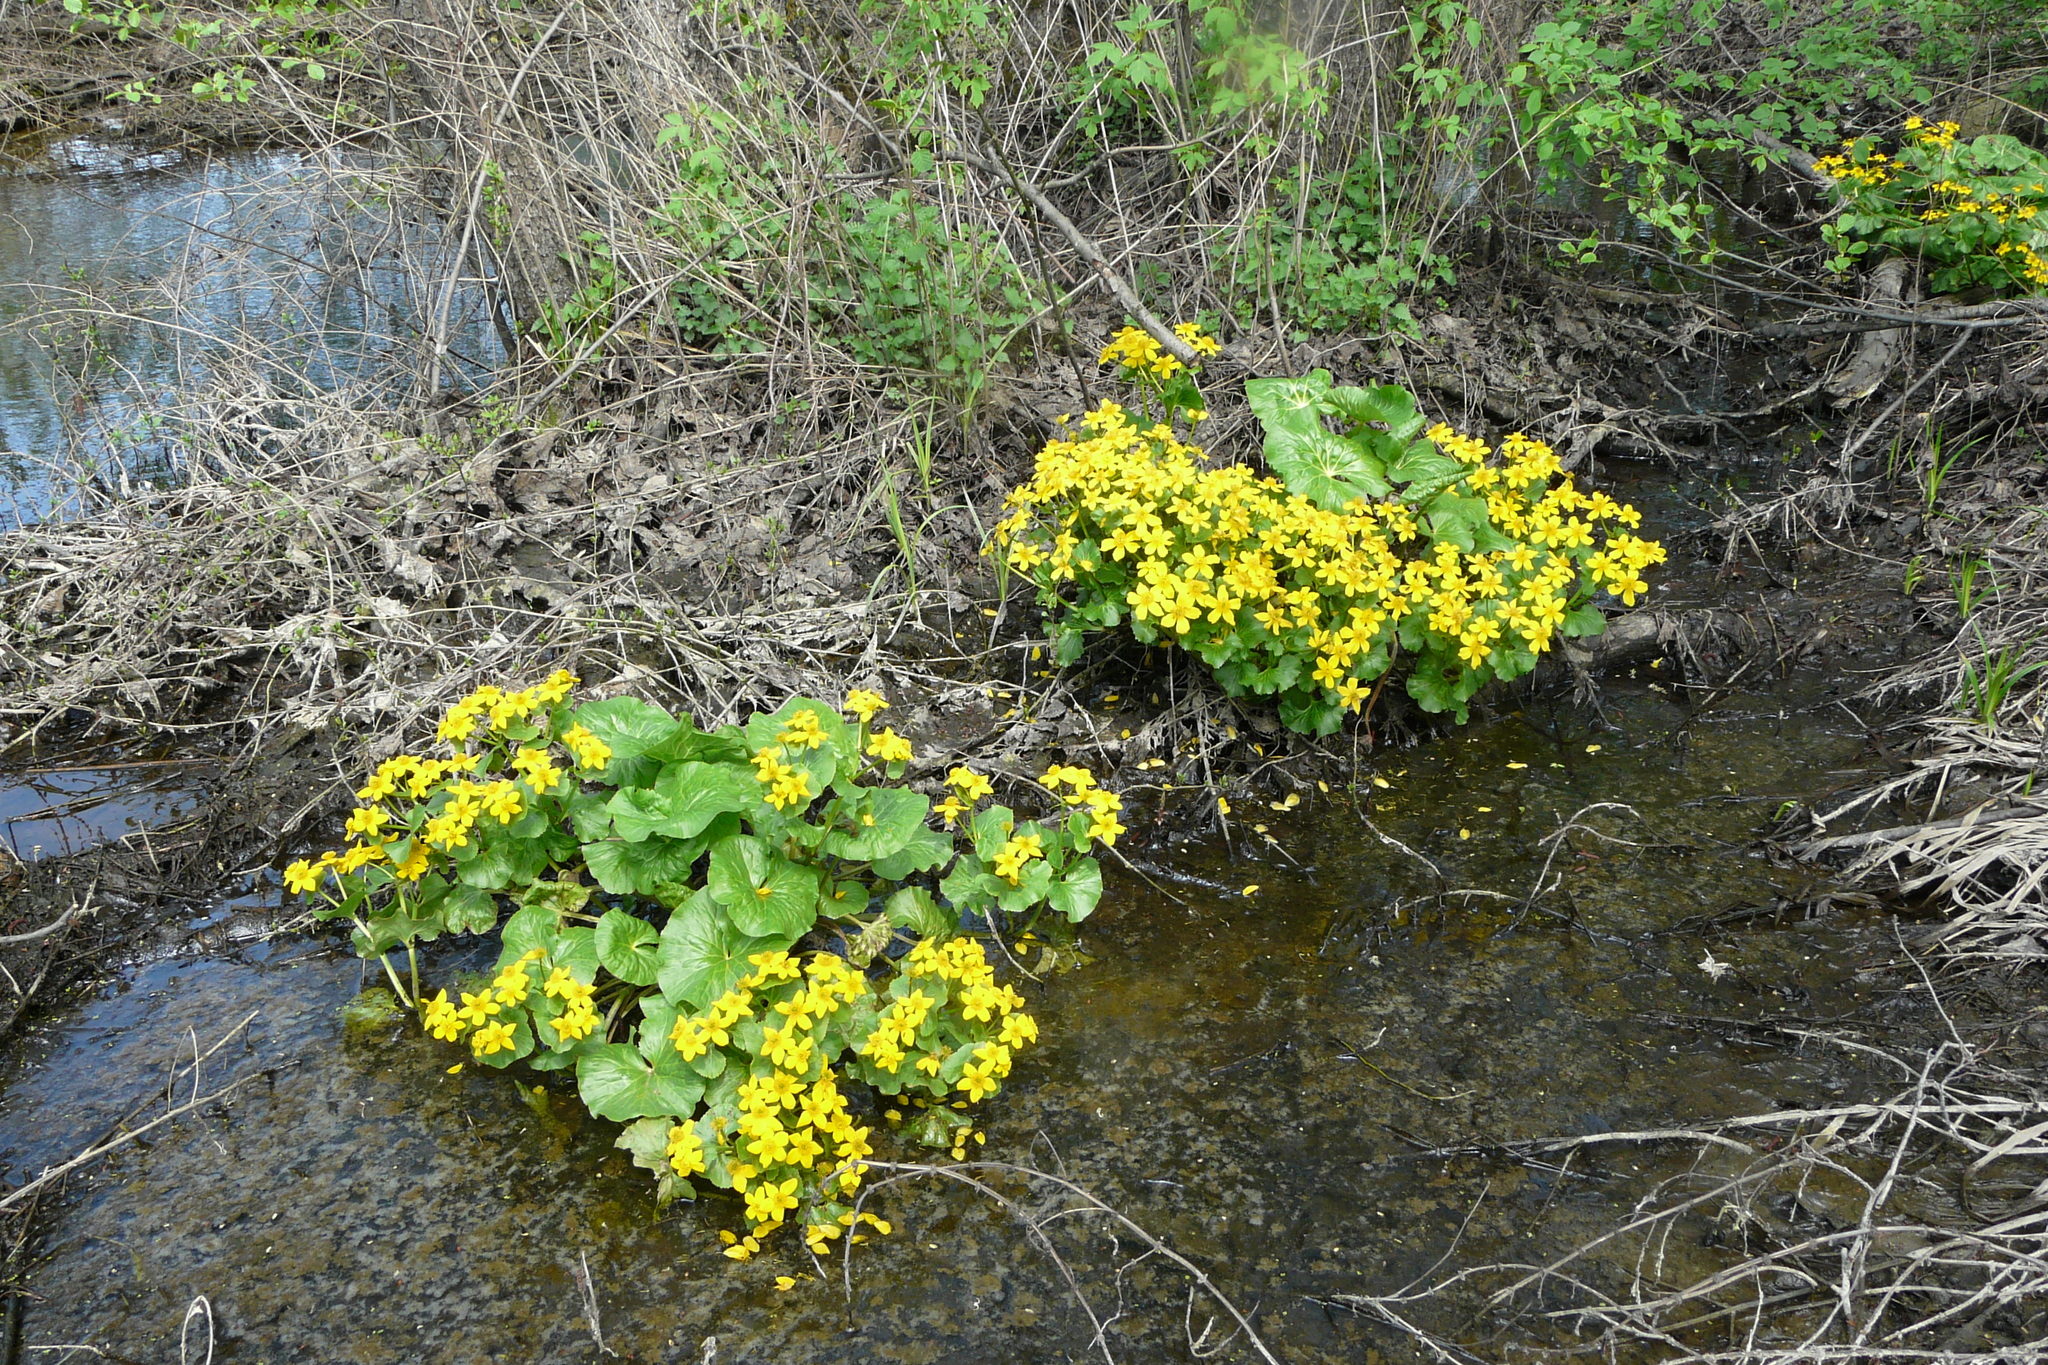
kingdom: Plantae
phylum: Tracheophyta
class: Magnoliopsida
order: Ranunculales
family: Ranunculaceae
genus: Caltha
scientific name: Caltha palustris
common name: Marsh marigold
